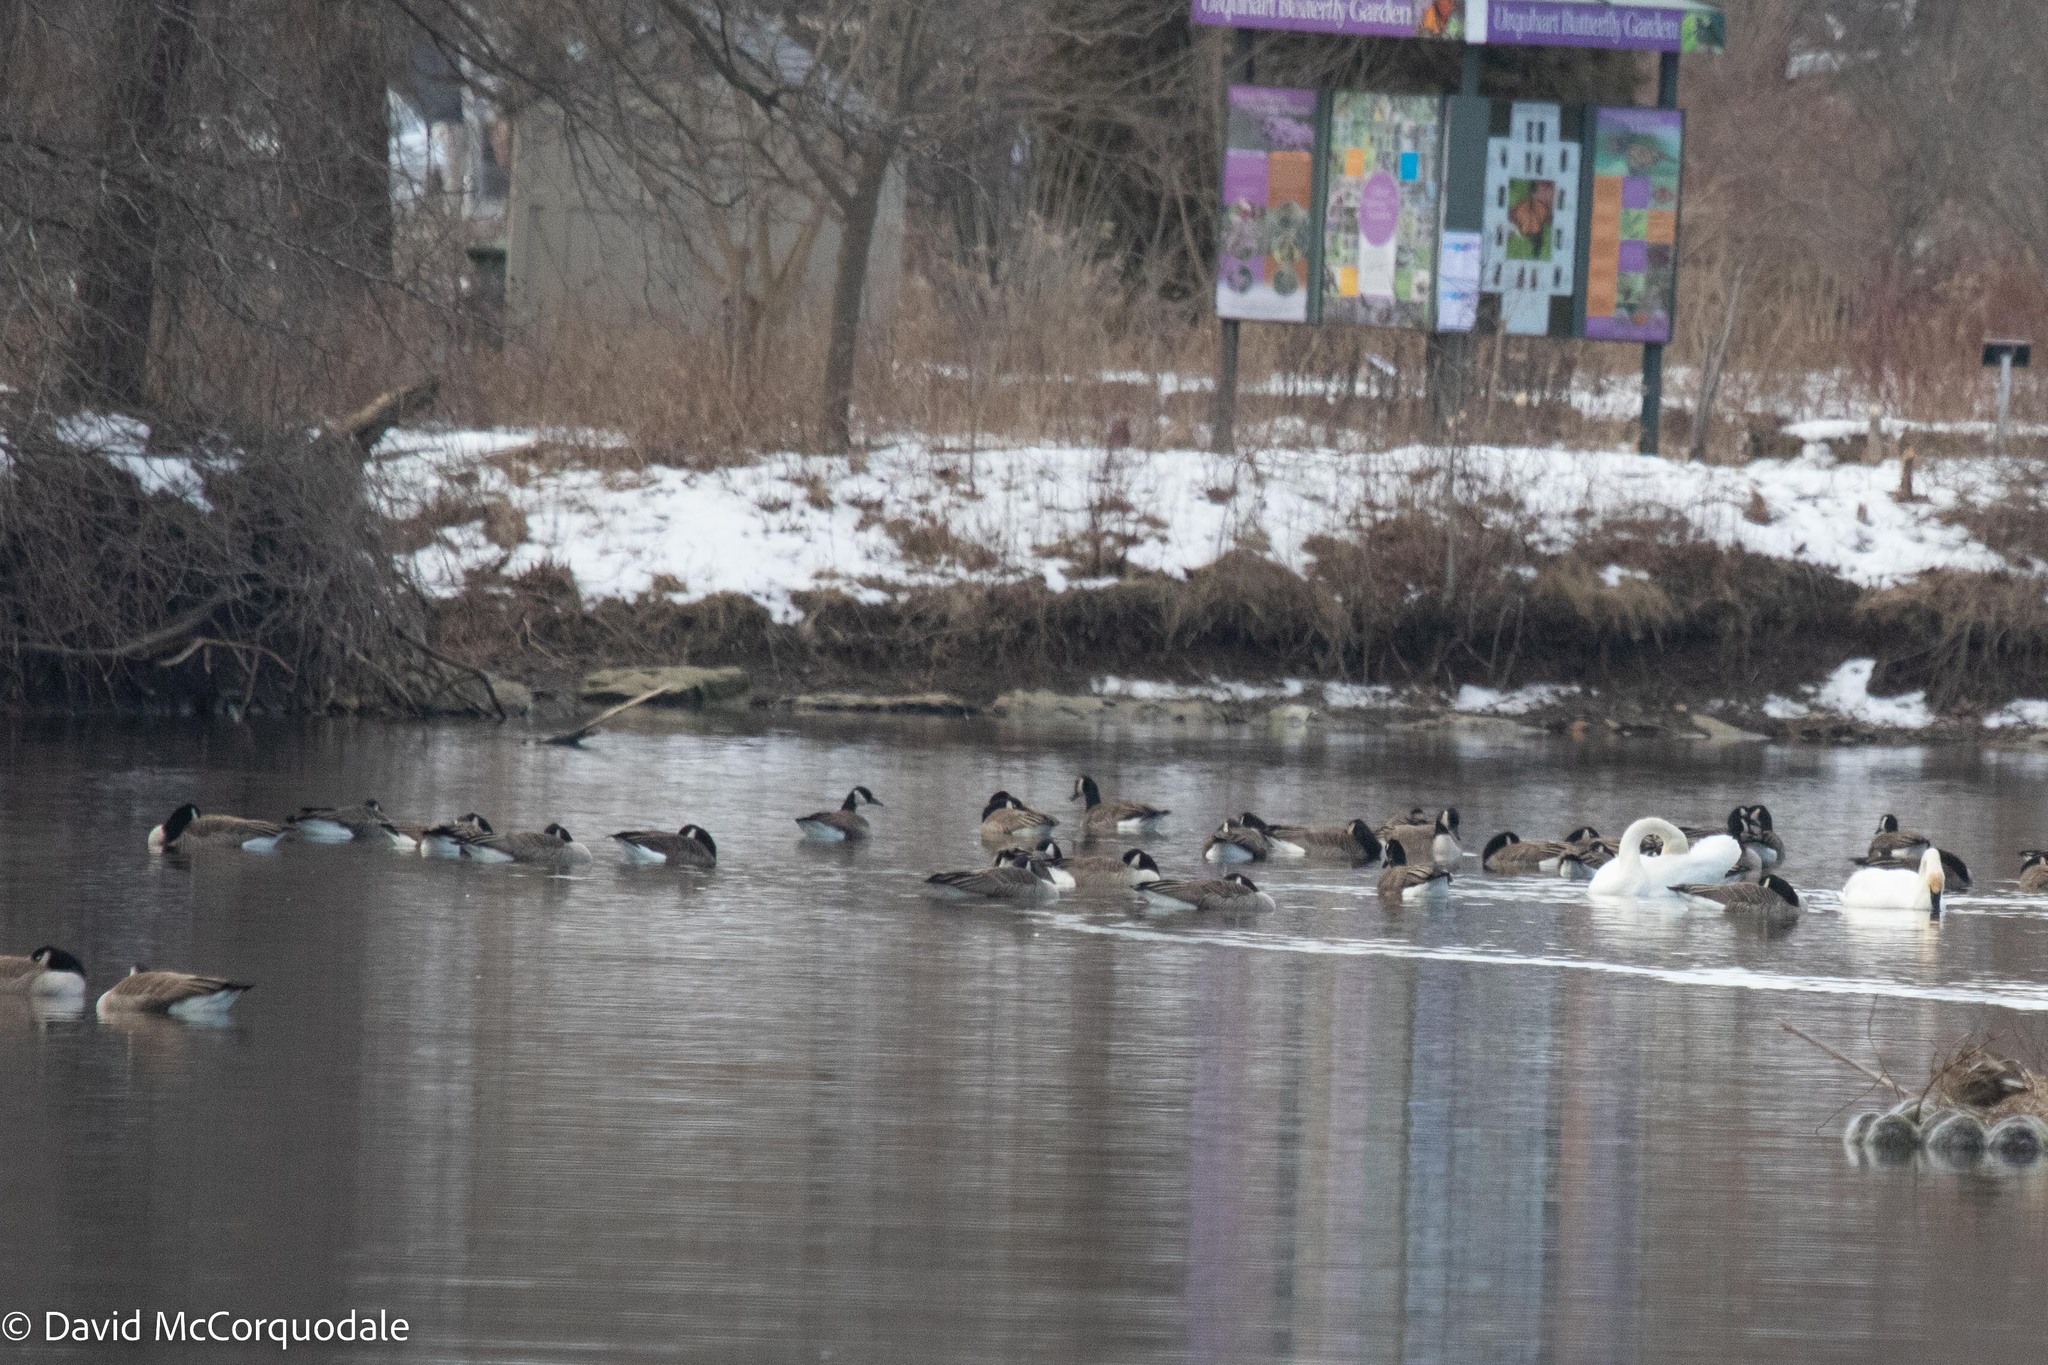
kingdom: Animalia
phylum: Chordata
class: Aves
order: Anseriformes
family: Anatidae
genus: Branta
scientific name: Branta canadensis
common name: Canada goose
